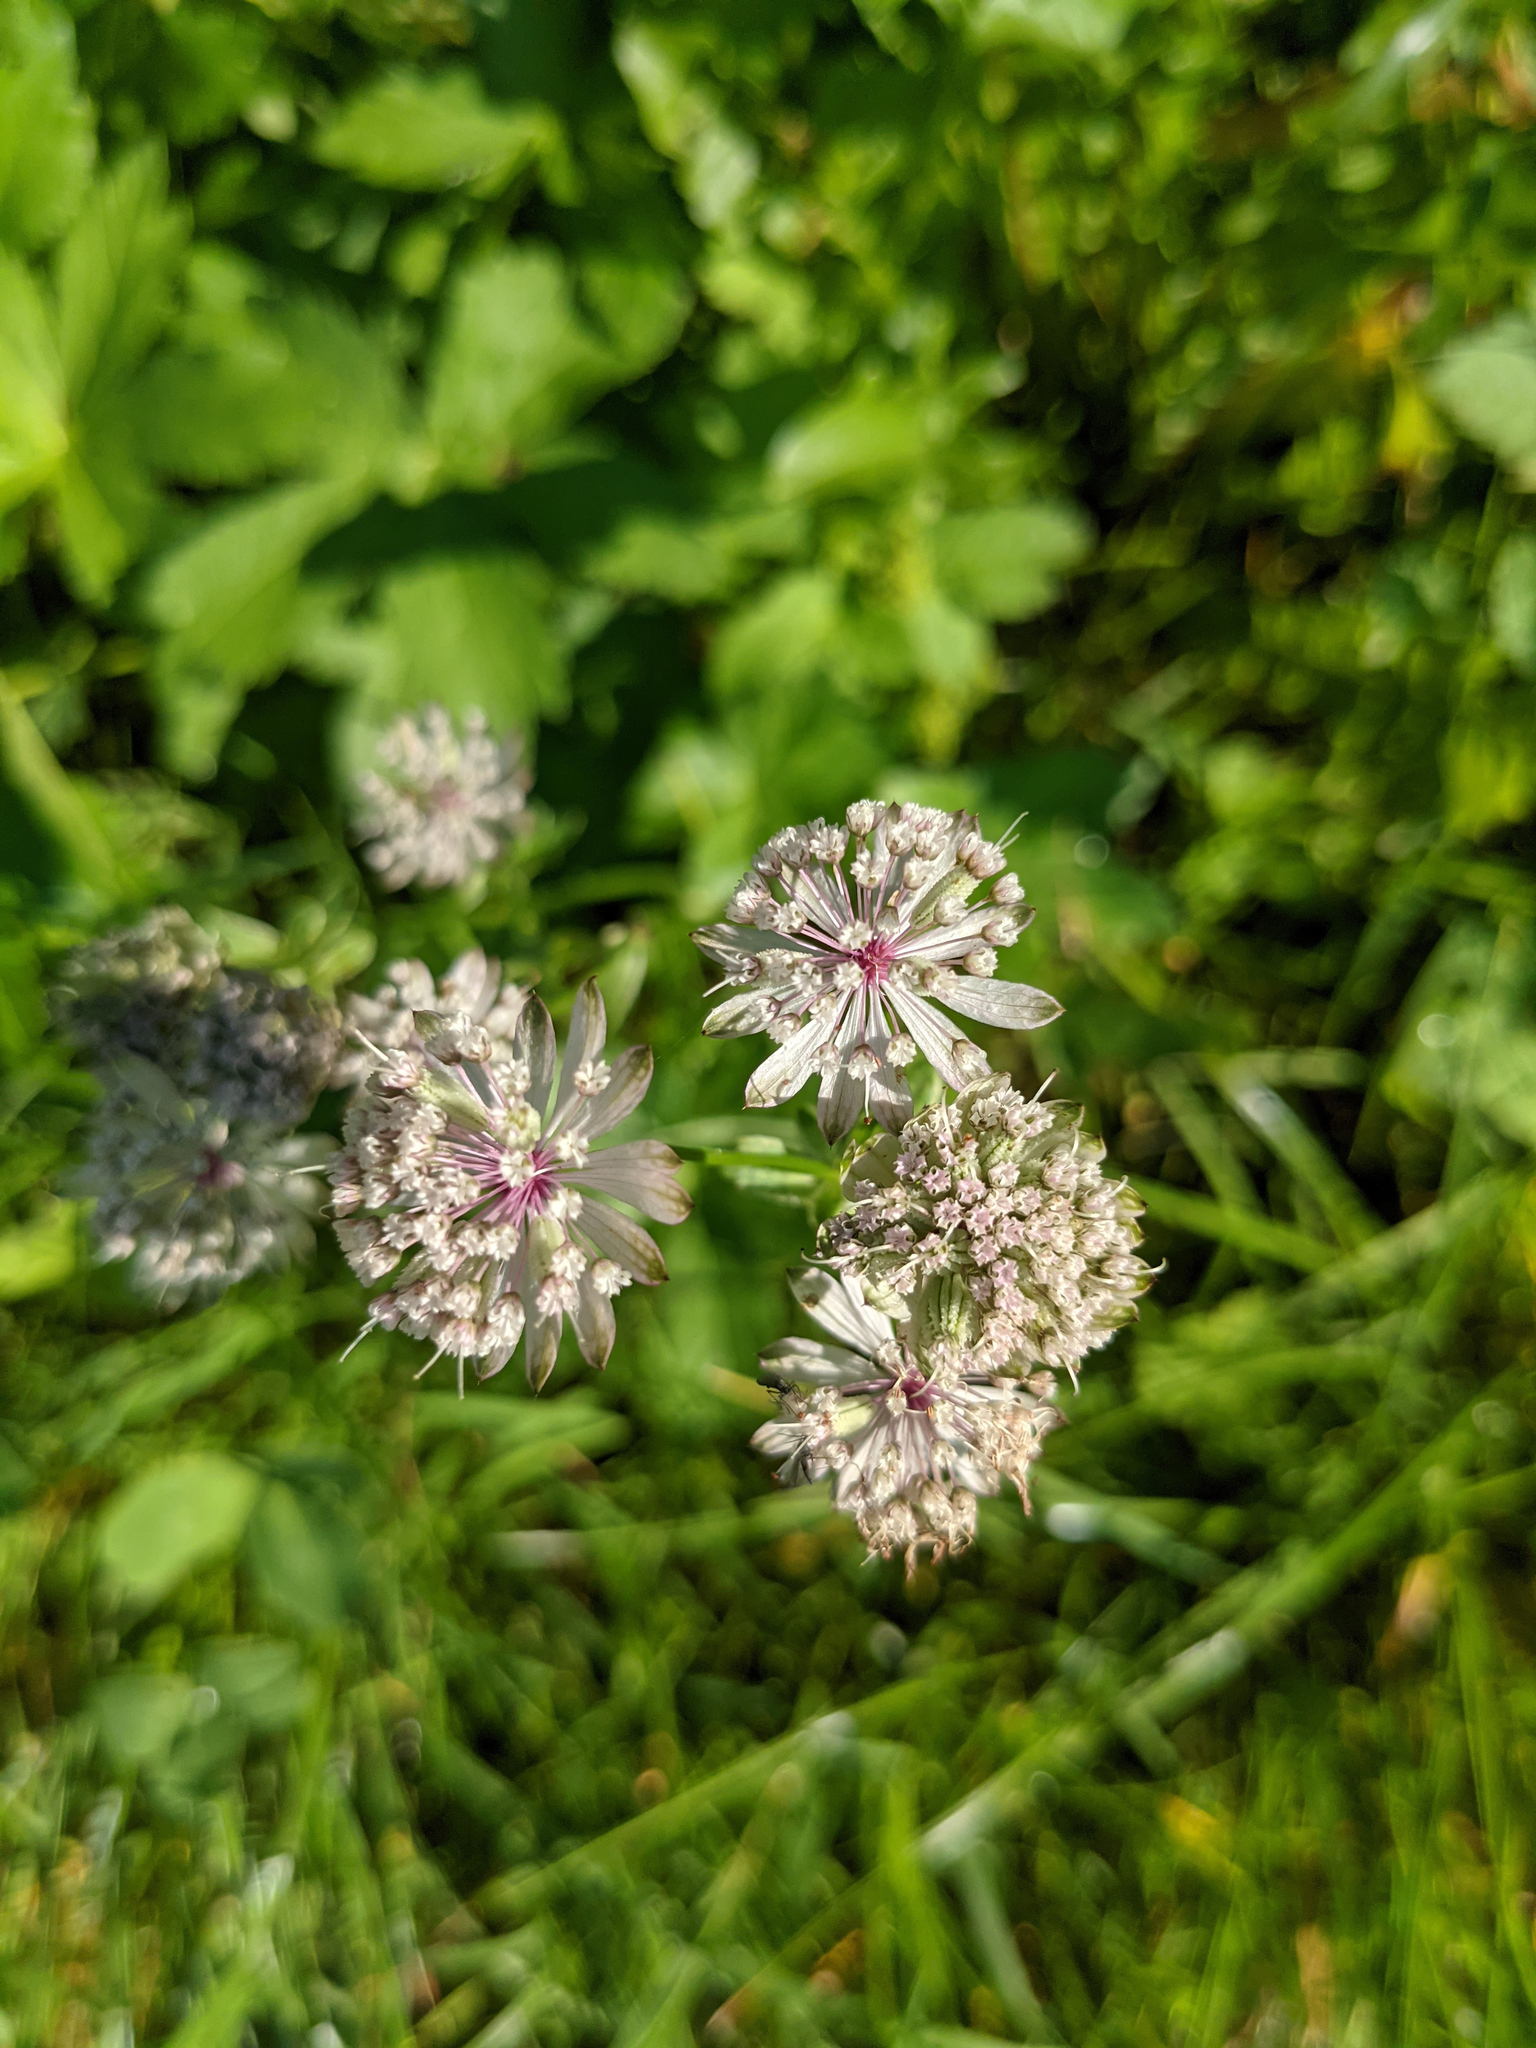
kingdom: Plantae
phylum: Tracheophyta
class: Magnoliopsida
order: Apiales
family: Apiaceae
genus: Astrantia
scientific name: Astrantia major
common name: Greater masterwort
